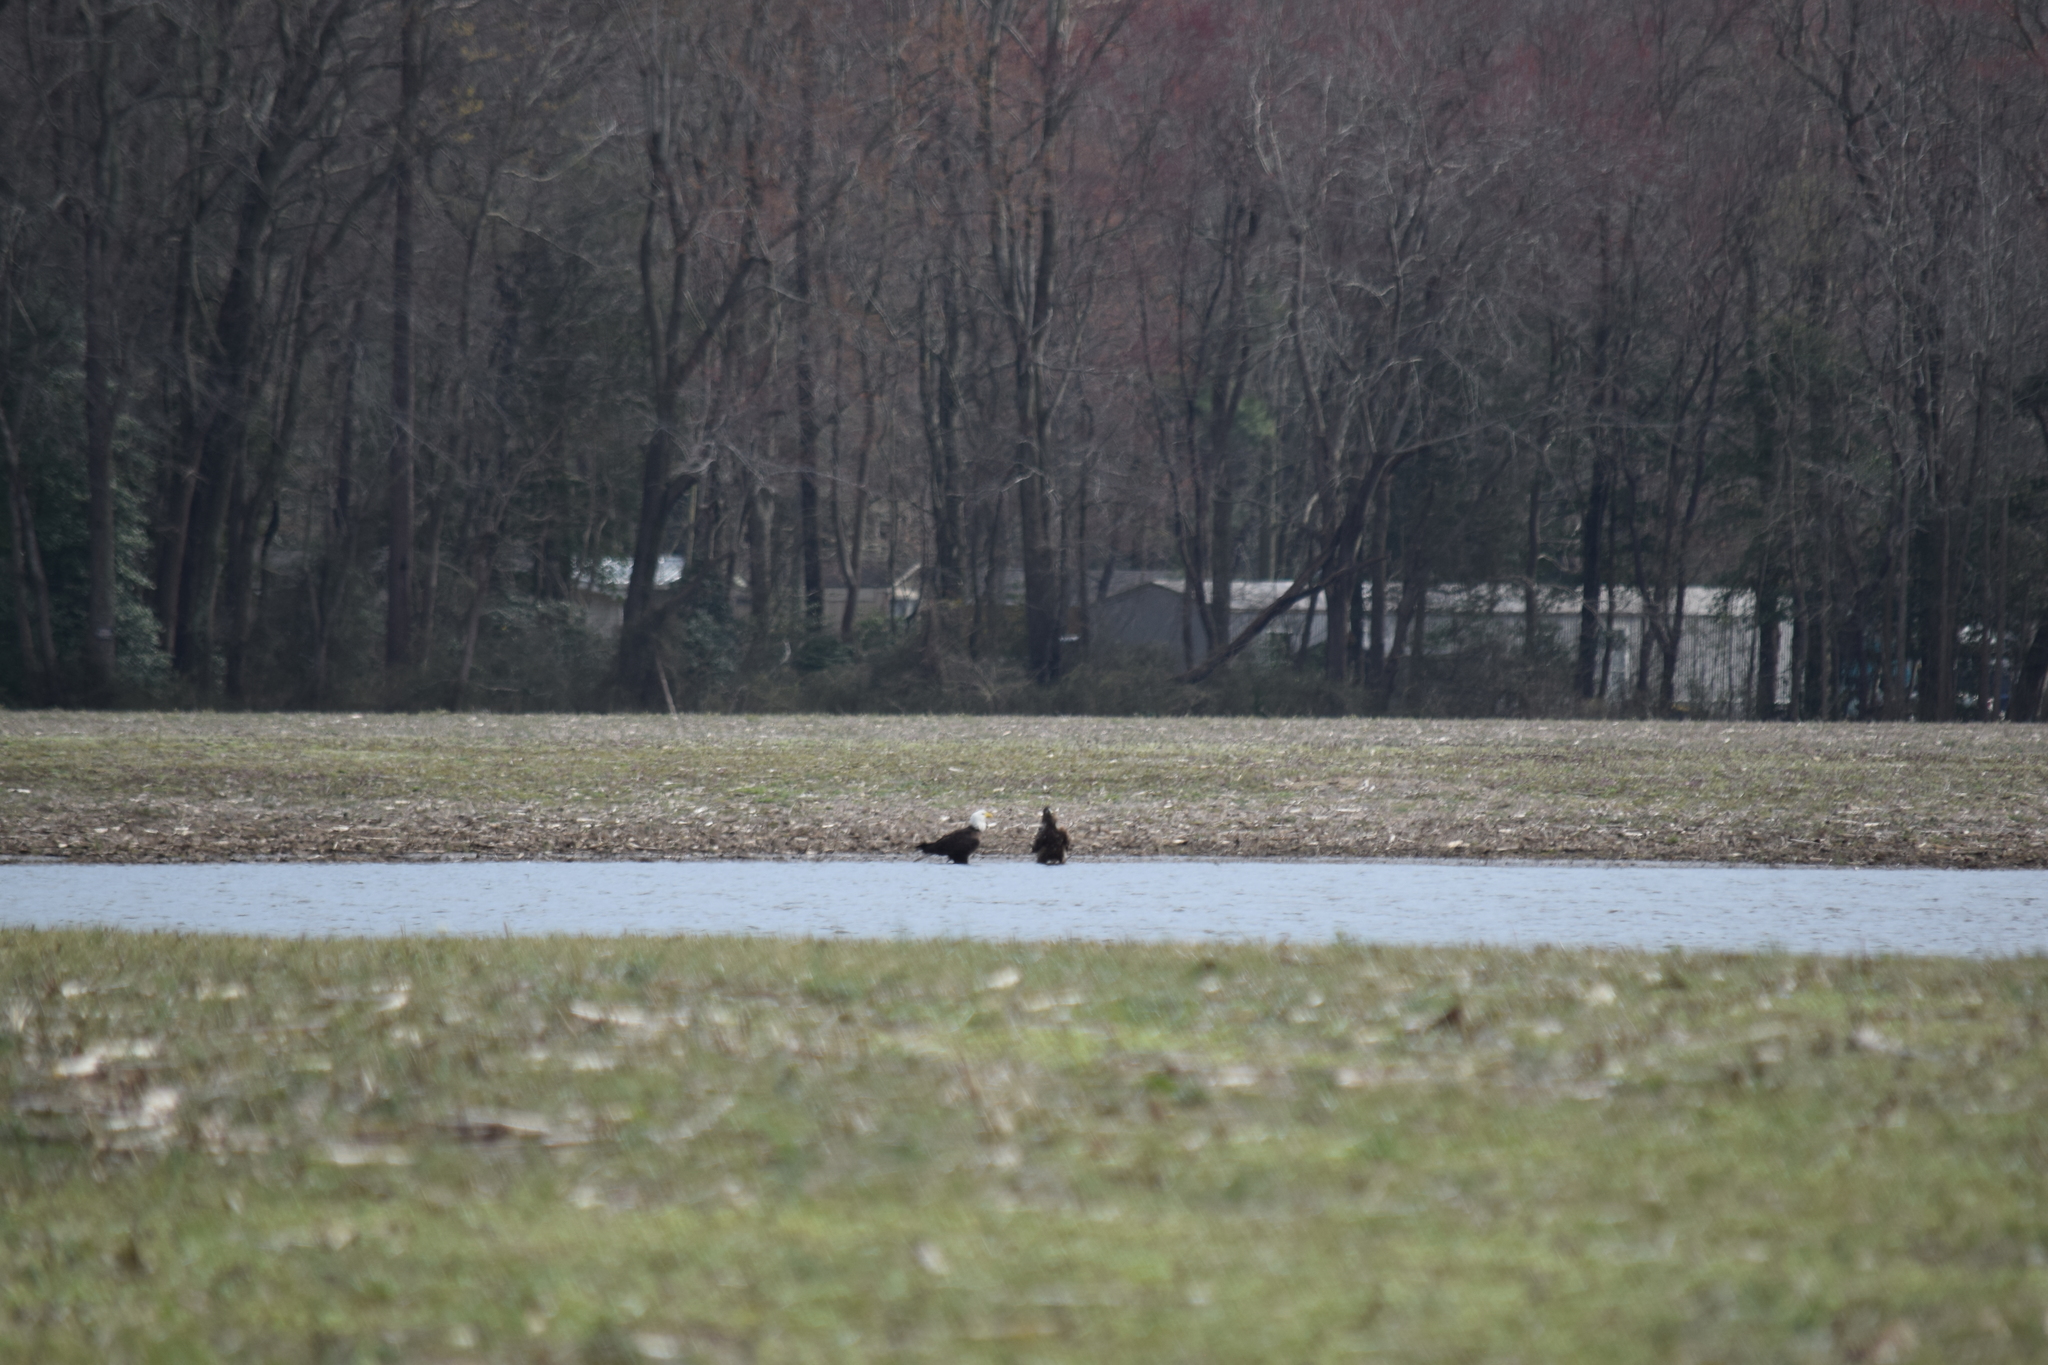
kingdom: Animalia
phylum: Chordata
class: Aves
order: Accipitriformes
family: Accipitridae
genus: Haliaeetus
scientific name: Haliaeetus leucocephalus
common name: Bald eagle
